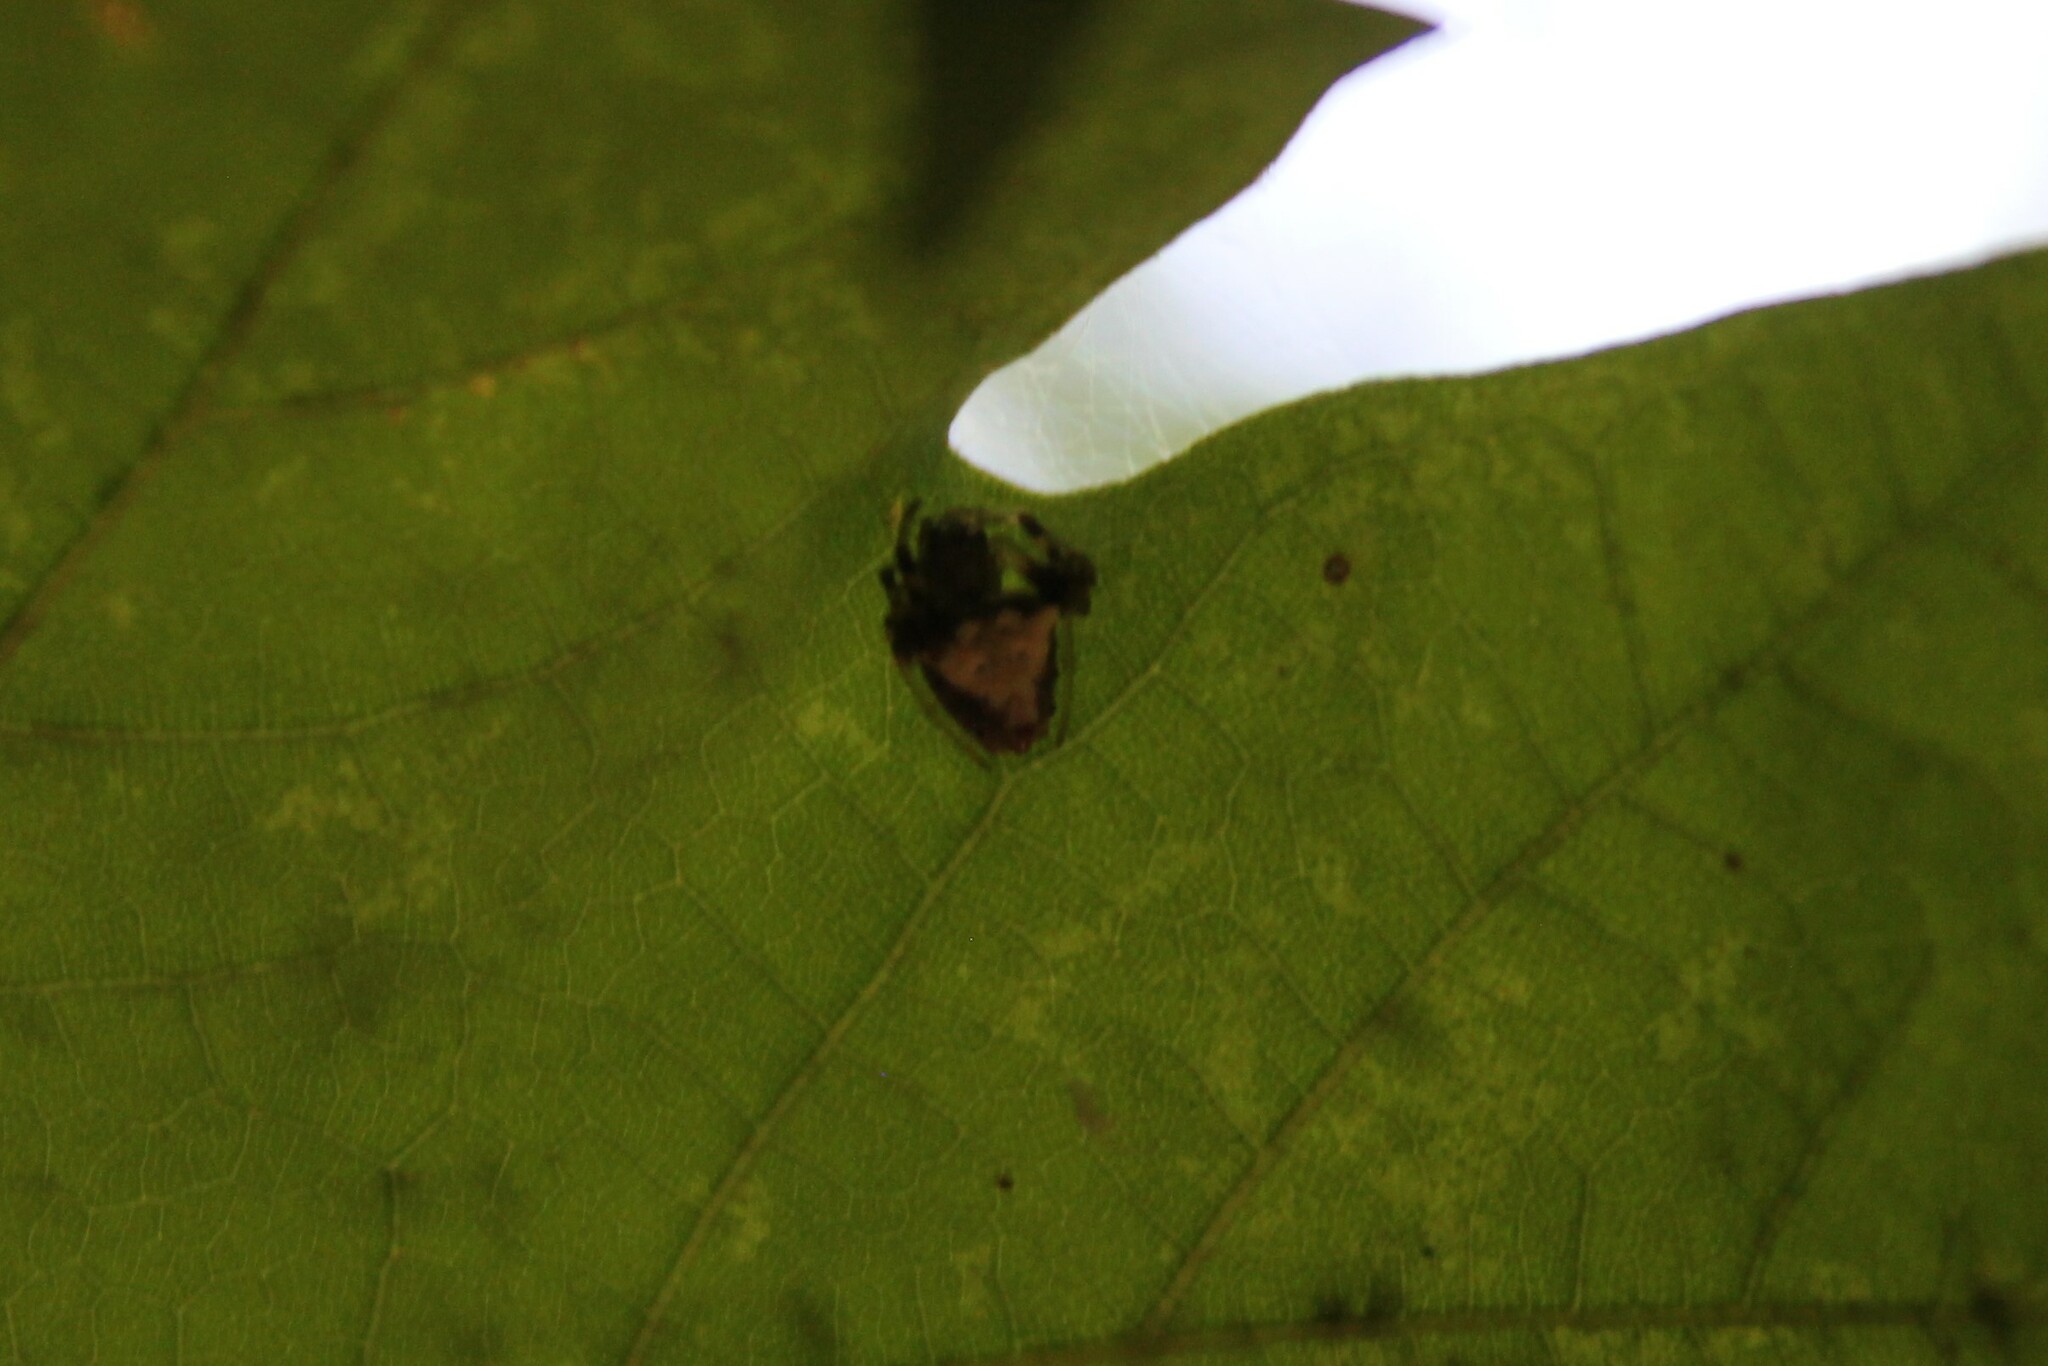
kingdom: Animalia
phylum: Arthropoda
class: Arachnida
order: Araneae
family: Araneidae
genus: Verrucosa
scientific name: Verrucosa arenata
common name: Orb weavers
